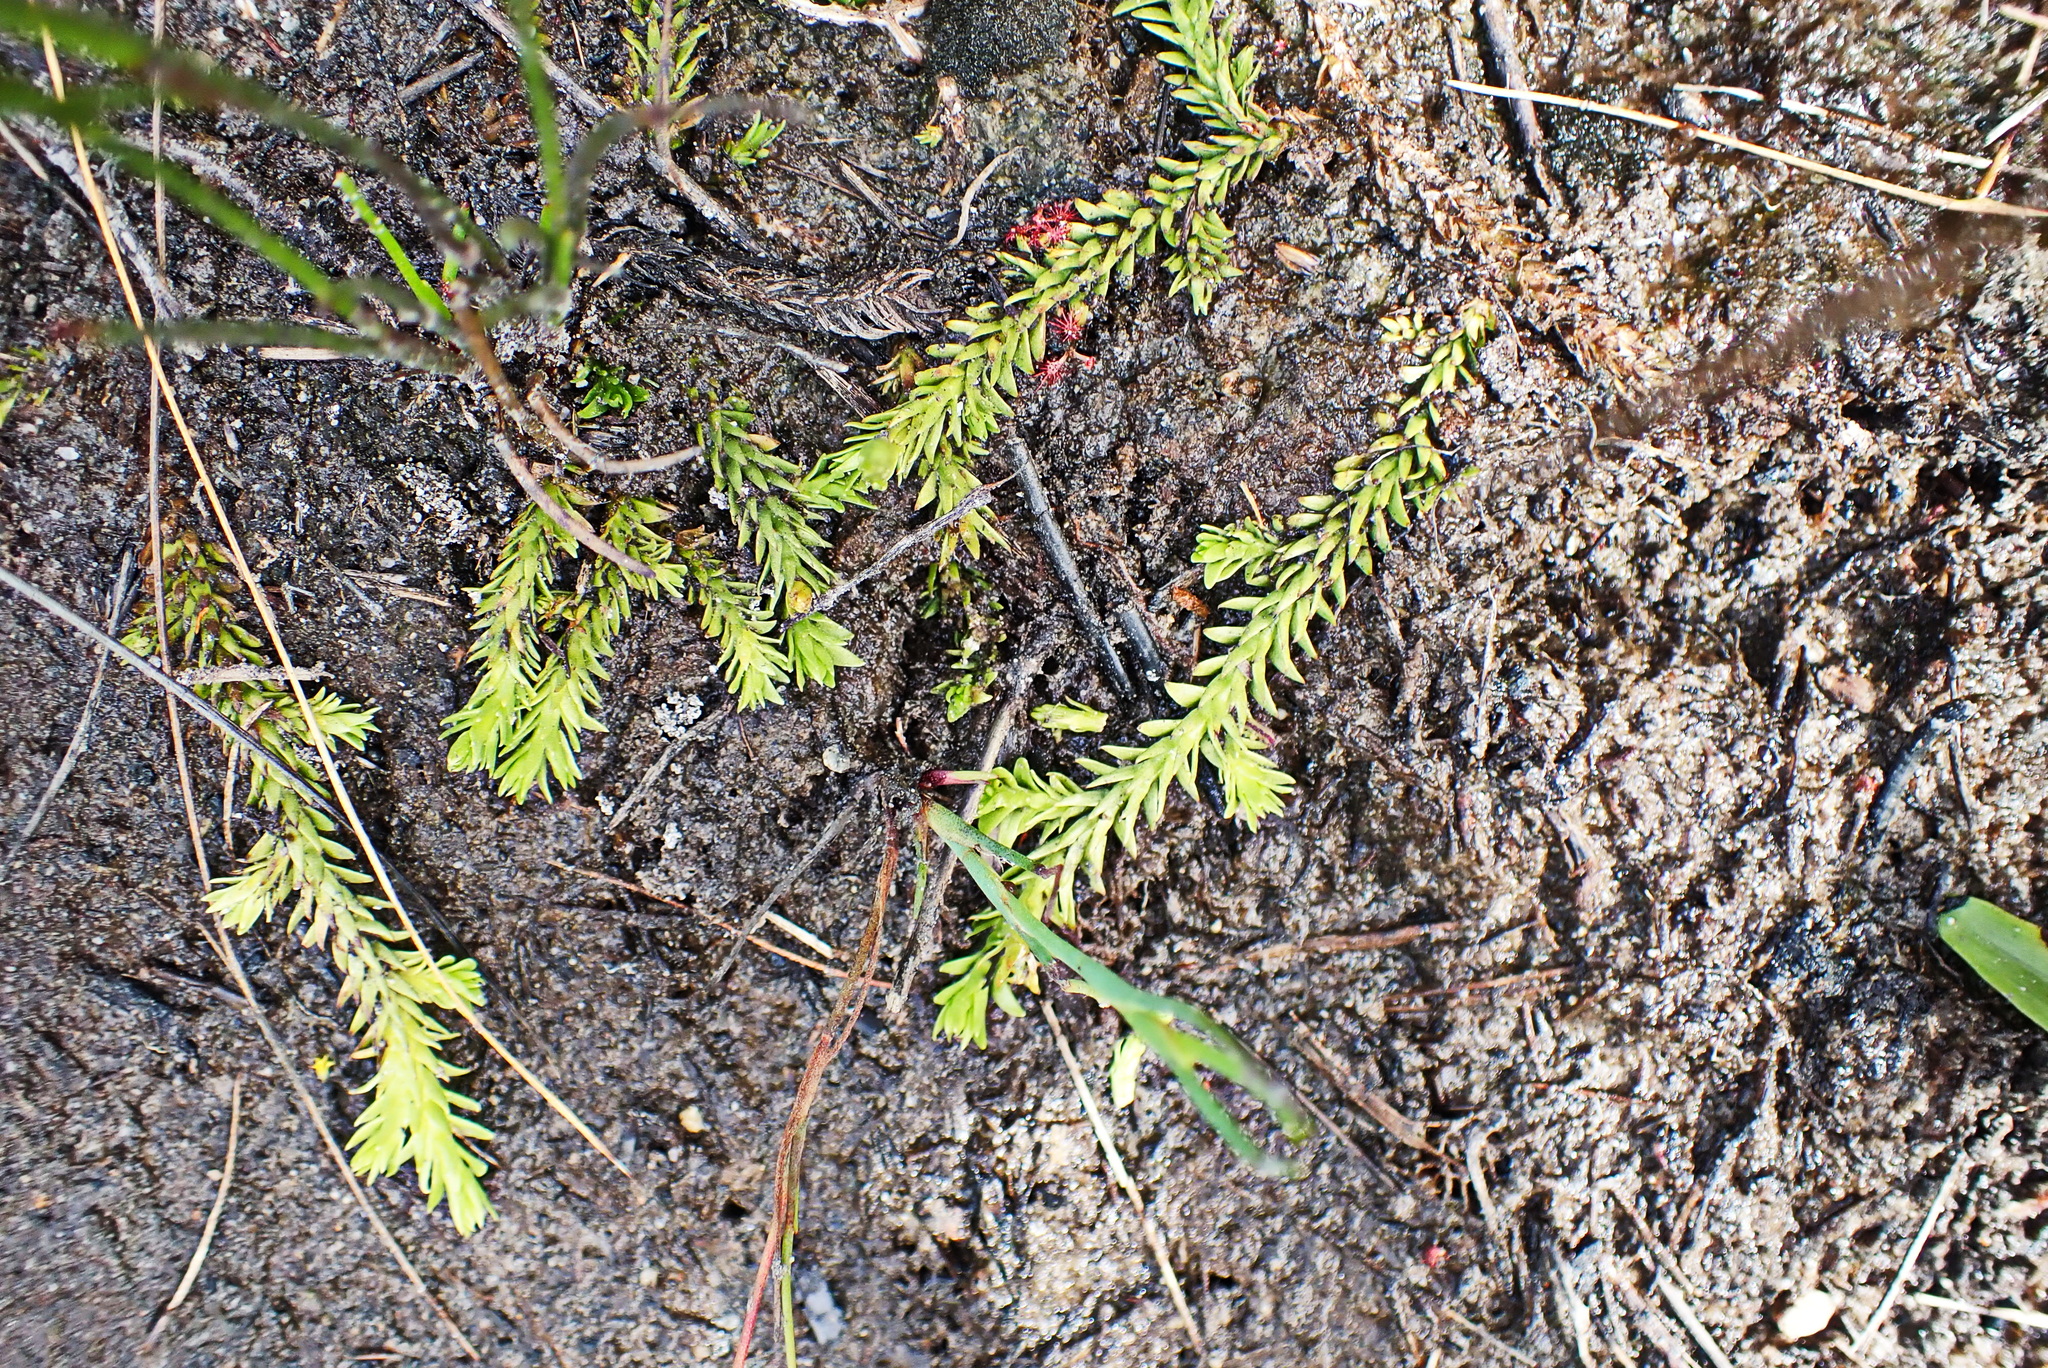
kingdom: Plantae
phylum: Tracheophyta
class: Lycopodiopsida
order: Lycopodiales
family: Lycopodiaceae
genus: Pseudolycopodiella
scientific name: Pseudolycopodiella caroliniana
